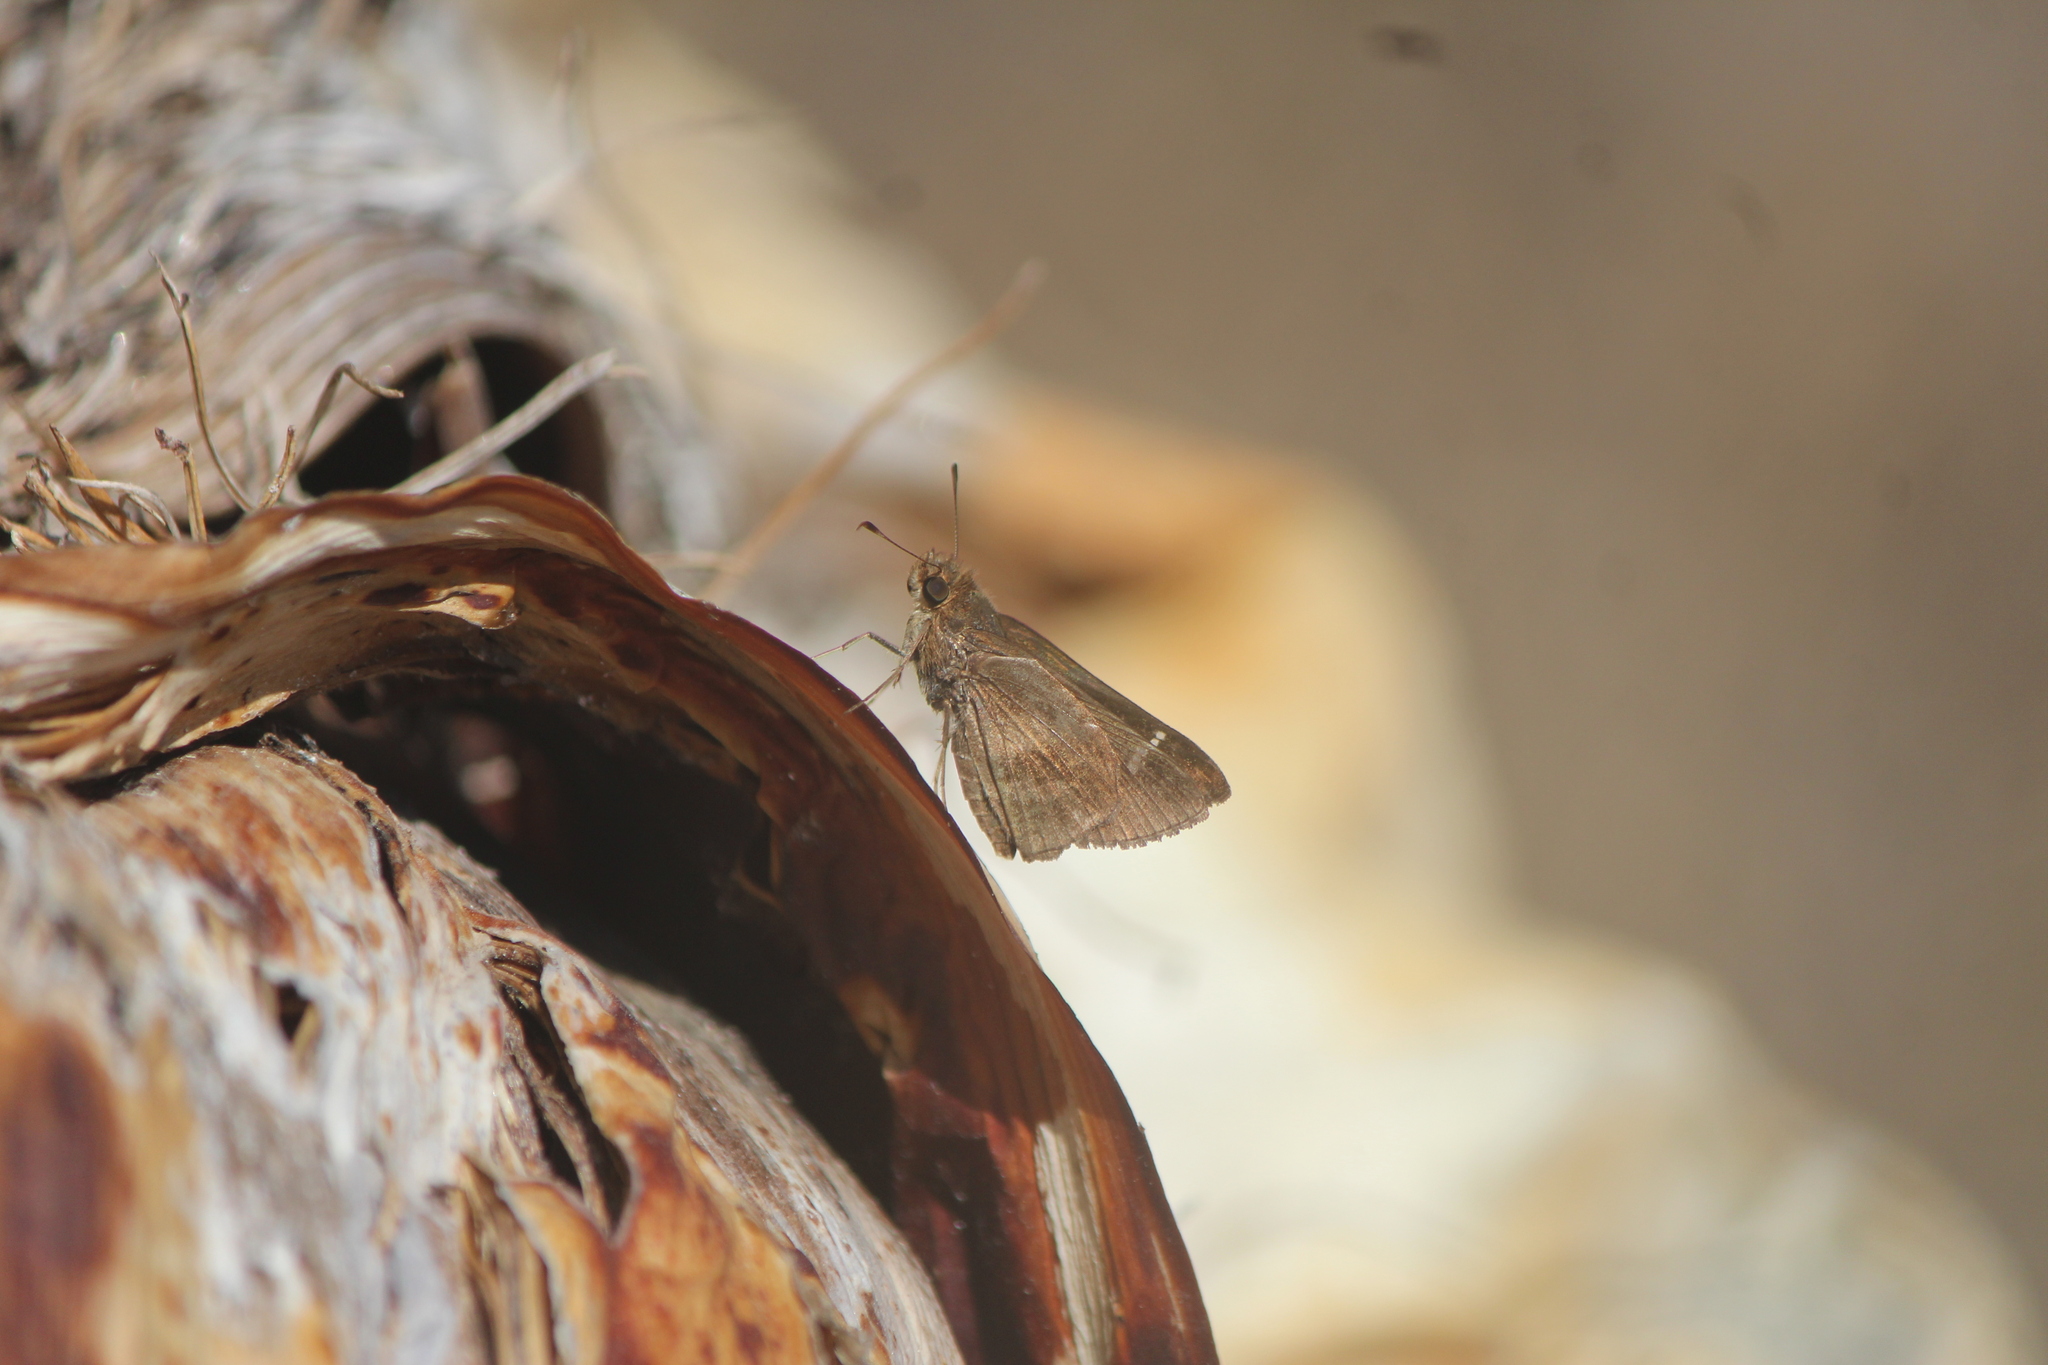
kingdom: Animalia
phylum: Arthropoda
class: Insecta
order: Lepidoptera
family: Hesperiidae
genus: Lerema
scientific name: Lerema accius
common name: Clouded skipper
